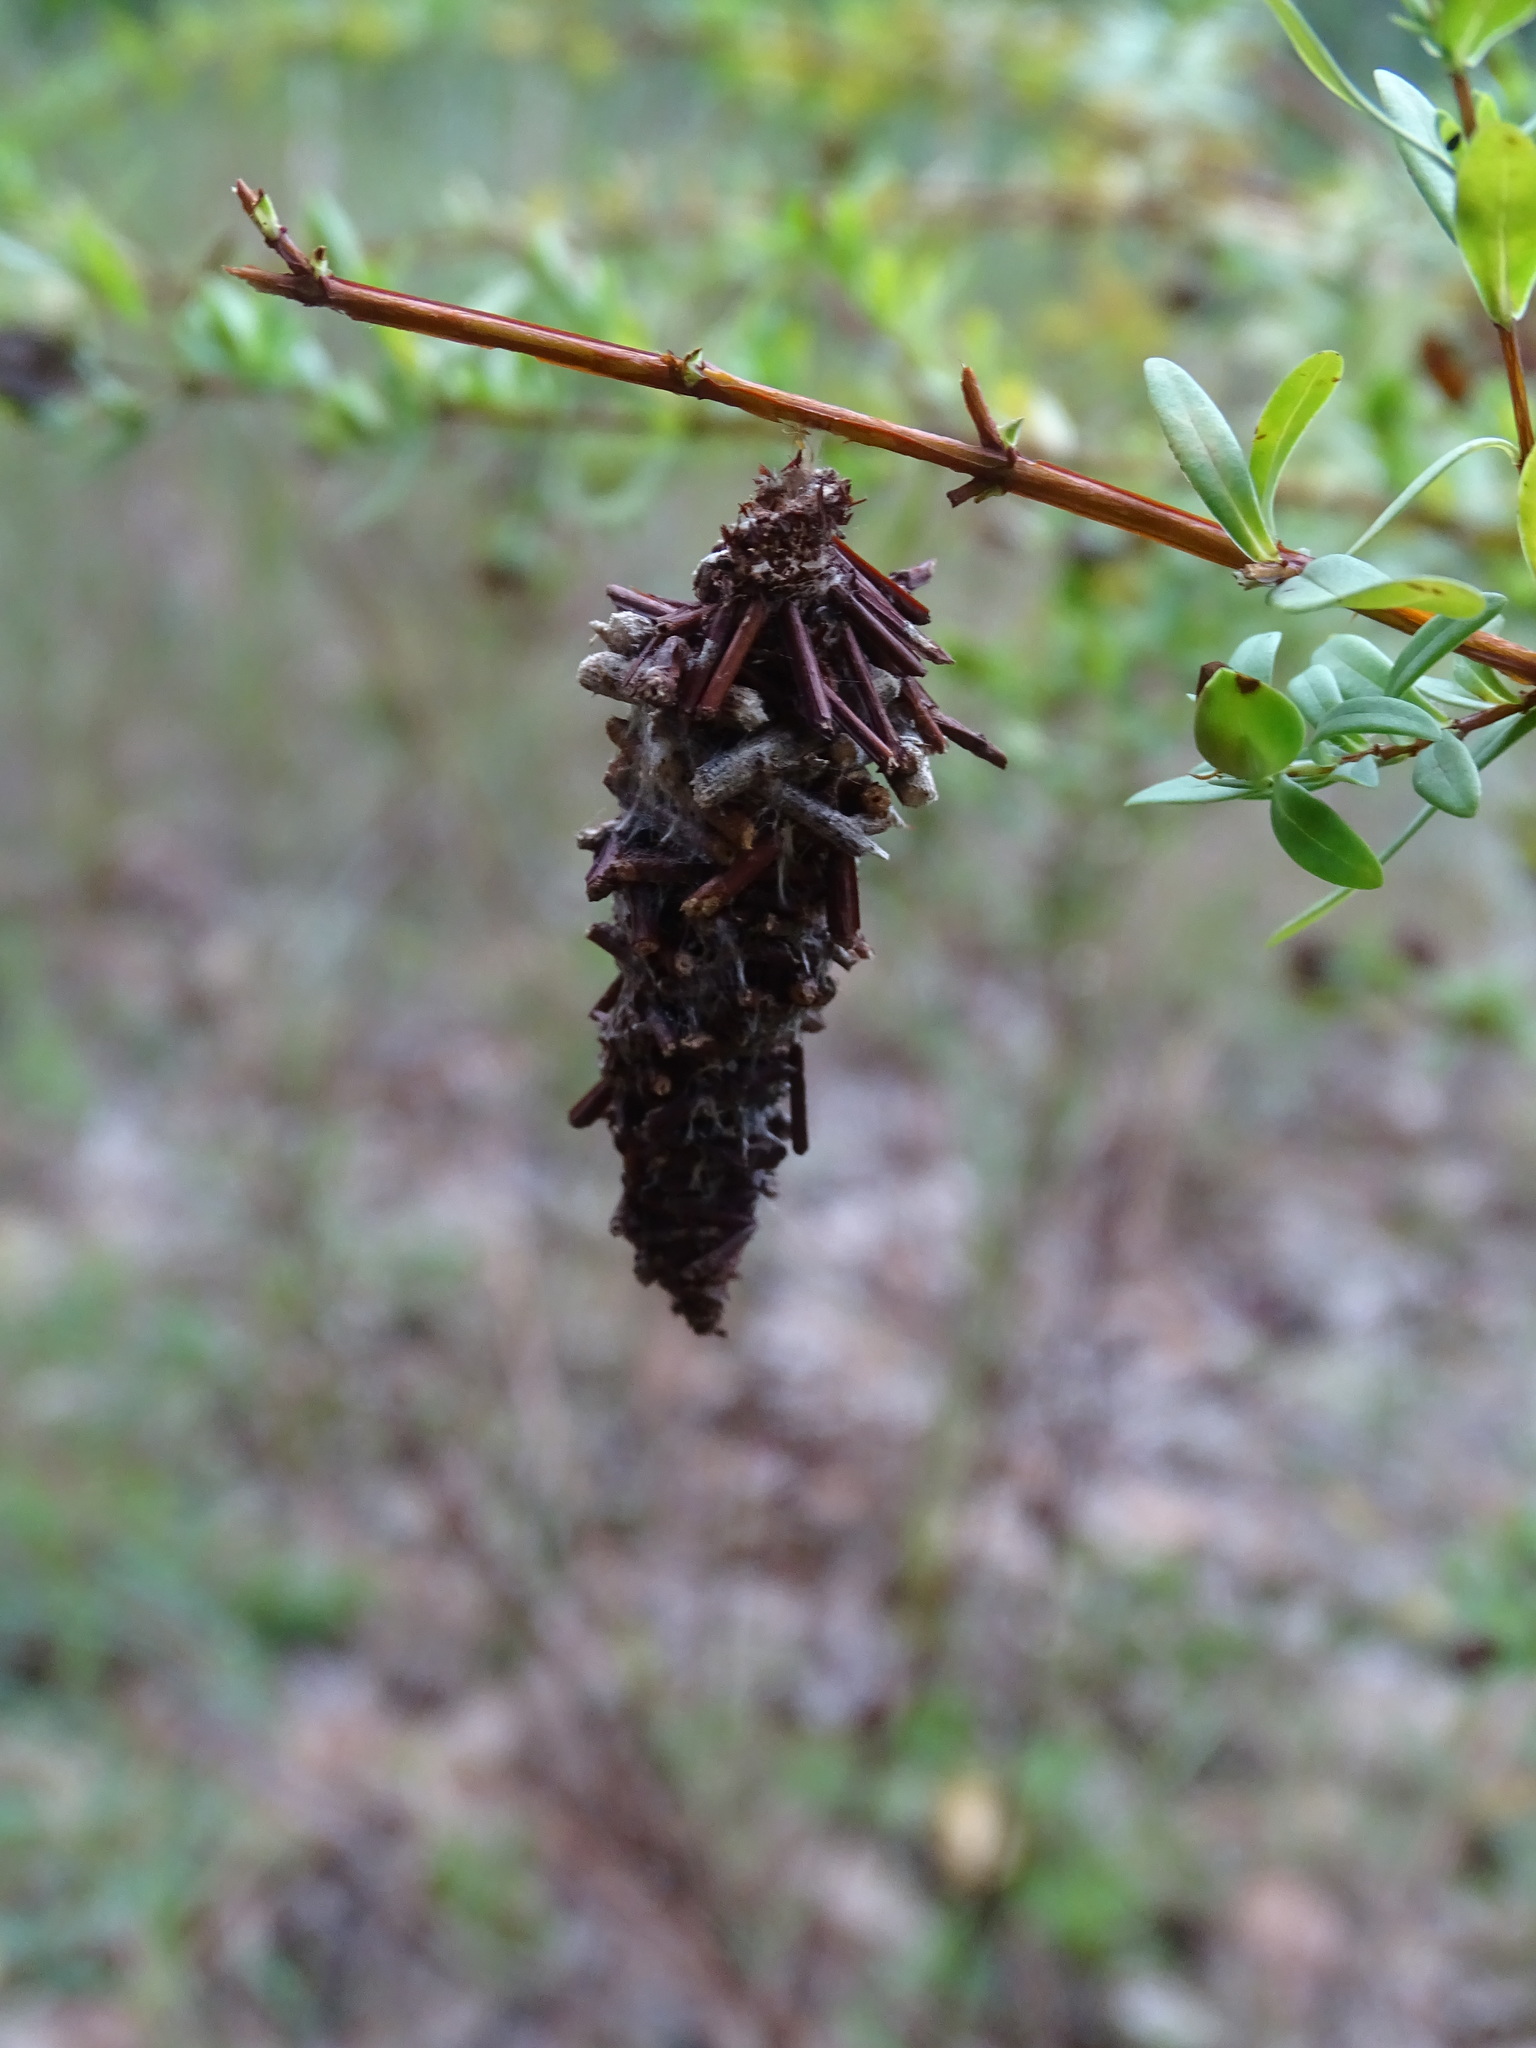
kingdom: Animalia
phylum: Arthropoda
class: Insecta
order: Lepidoptera
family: Psychidae
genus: Oiketicus
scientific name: Oiketicus
